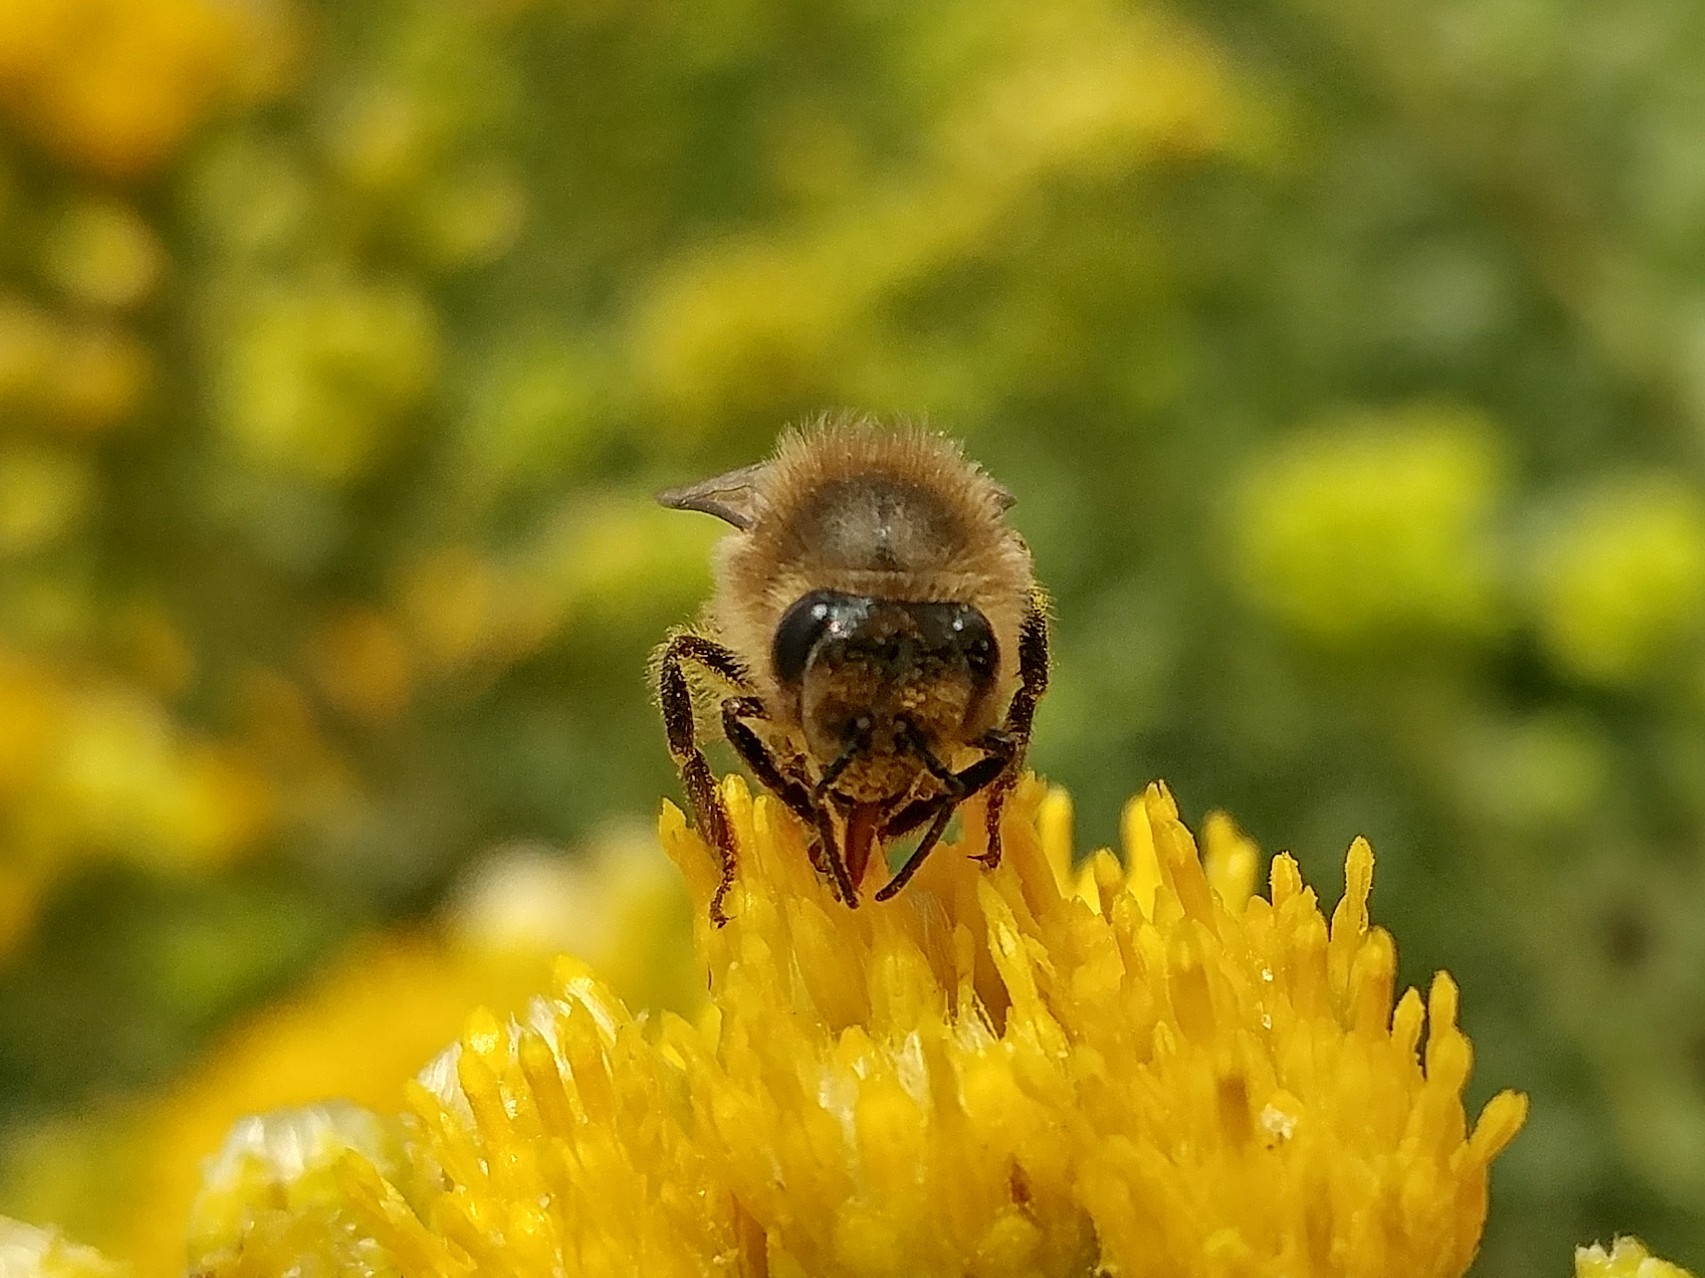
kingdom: Animalia
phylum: Arthropoda
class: Insecta
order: Hymenoptera
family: Apidae
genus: Apis
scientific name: Apis mellifera
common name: Honey bee
